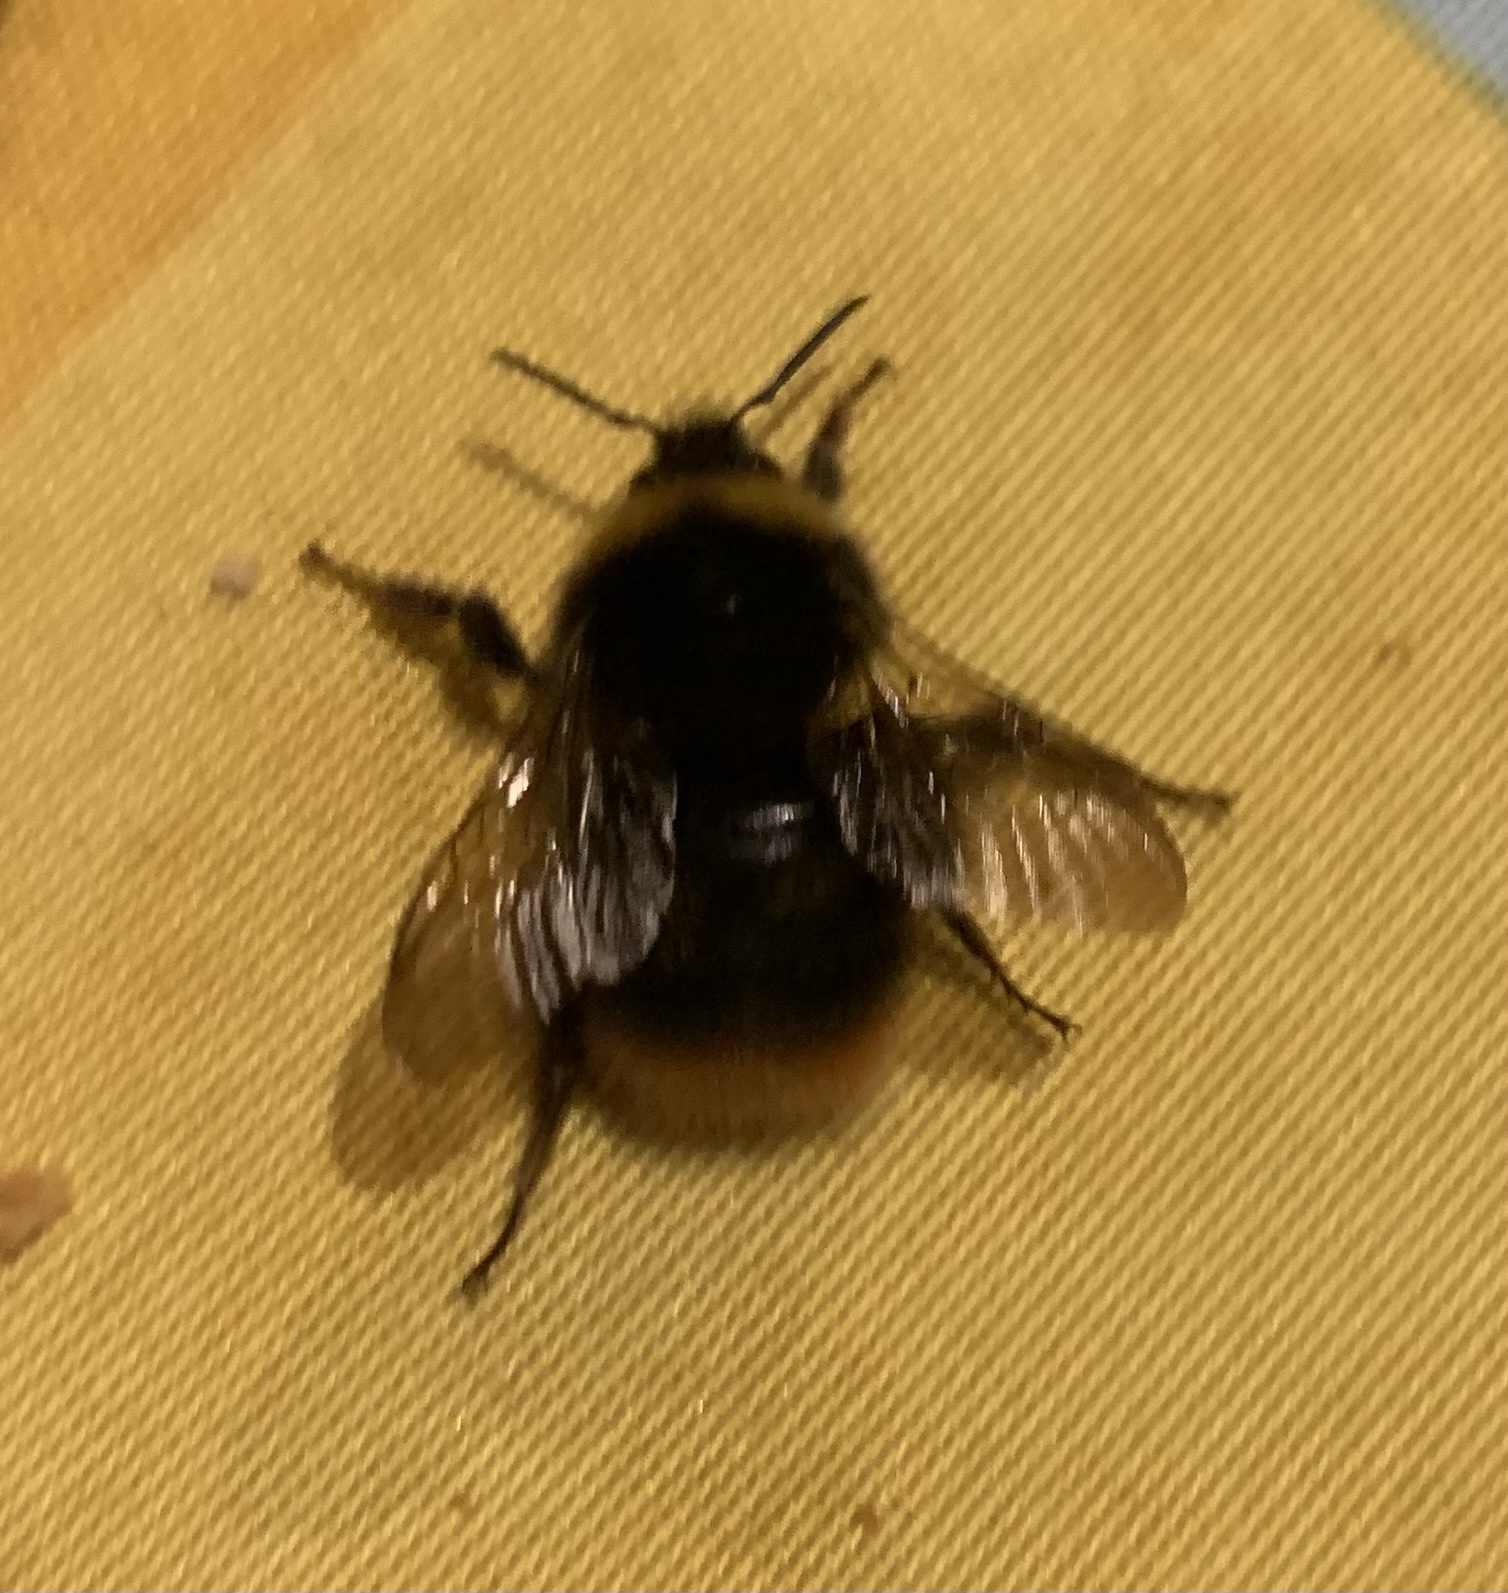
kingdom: Animalia
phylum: Arthropoda
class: Insecta
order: Hymenoptera
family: Apidae
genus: Bombus
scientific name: Bombus pratorum
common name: Early humble-bee
